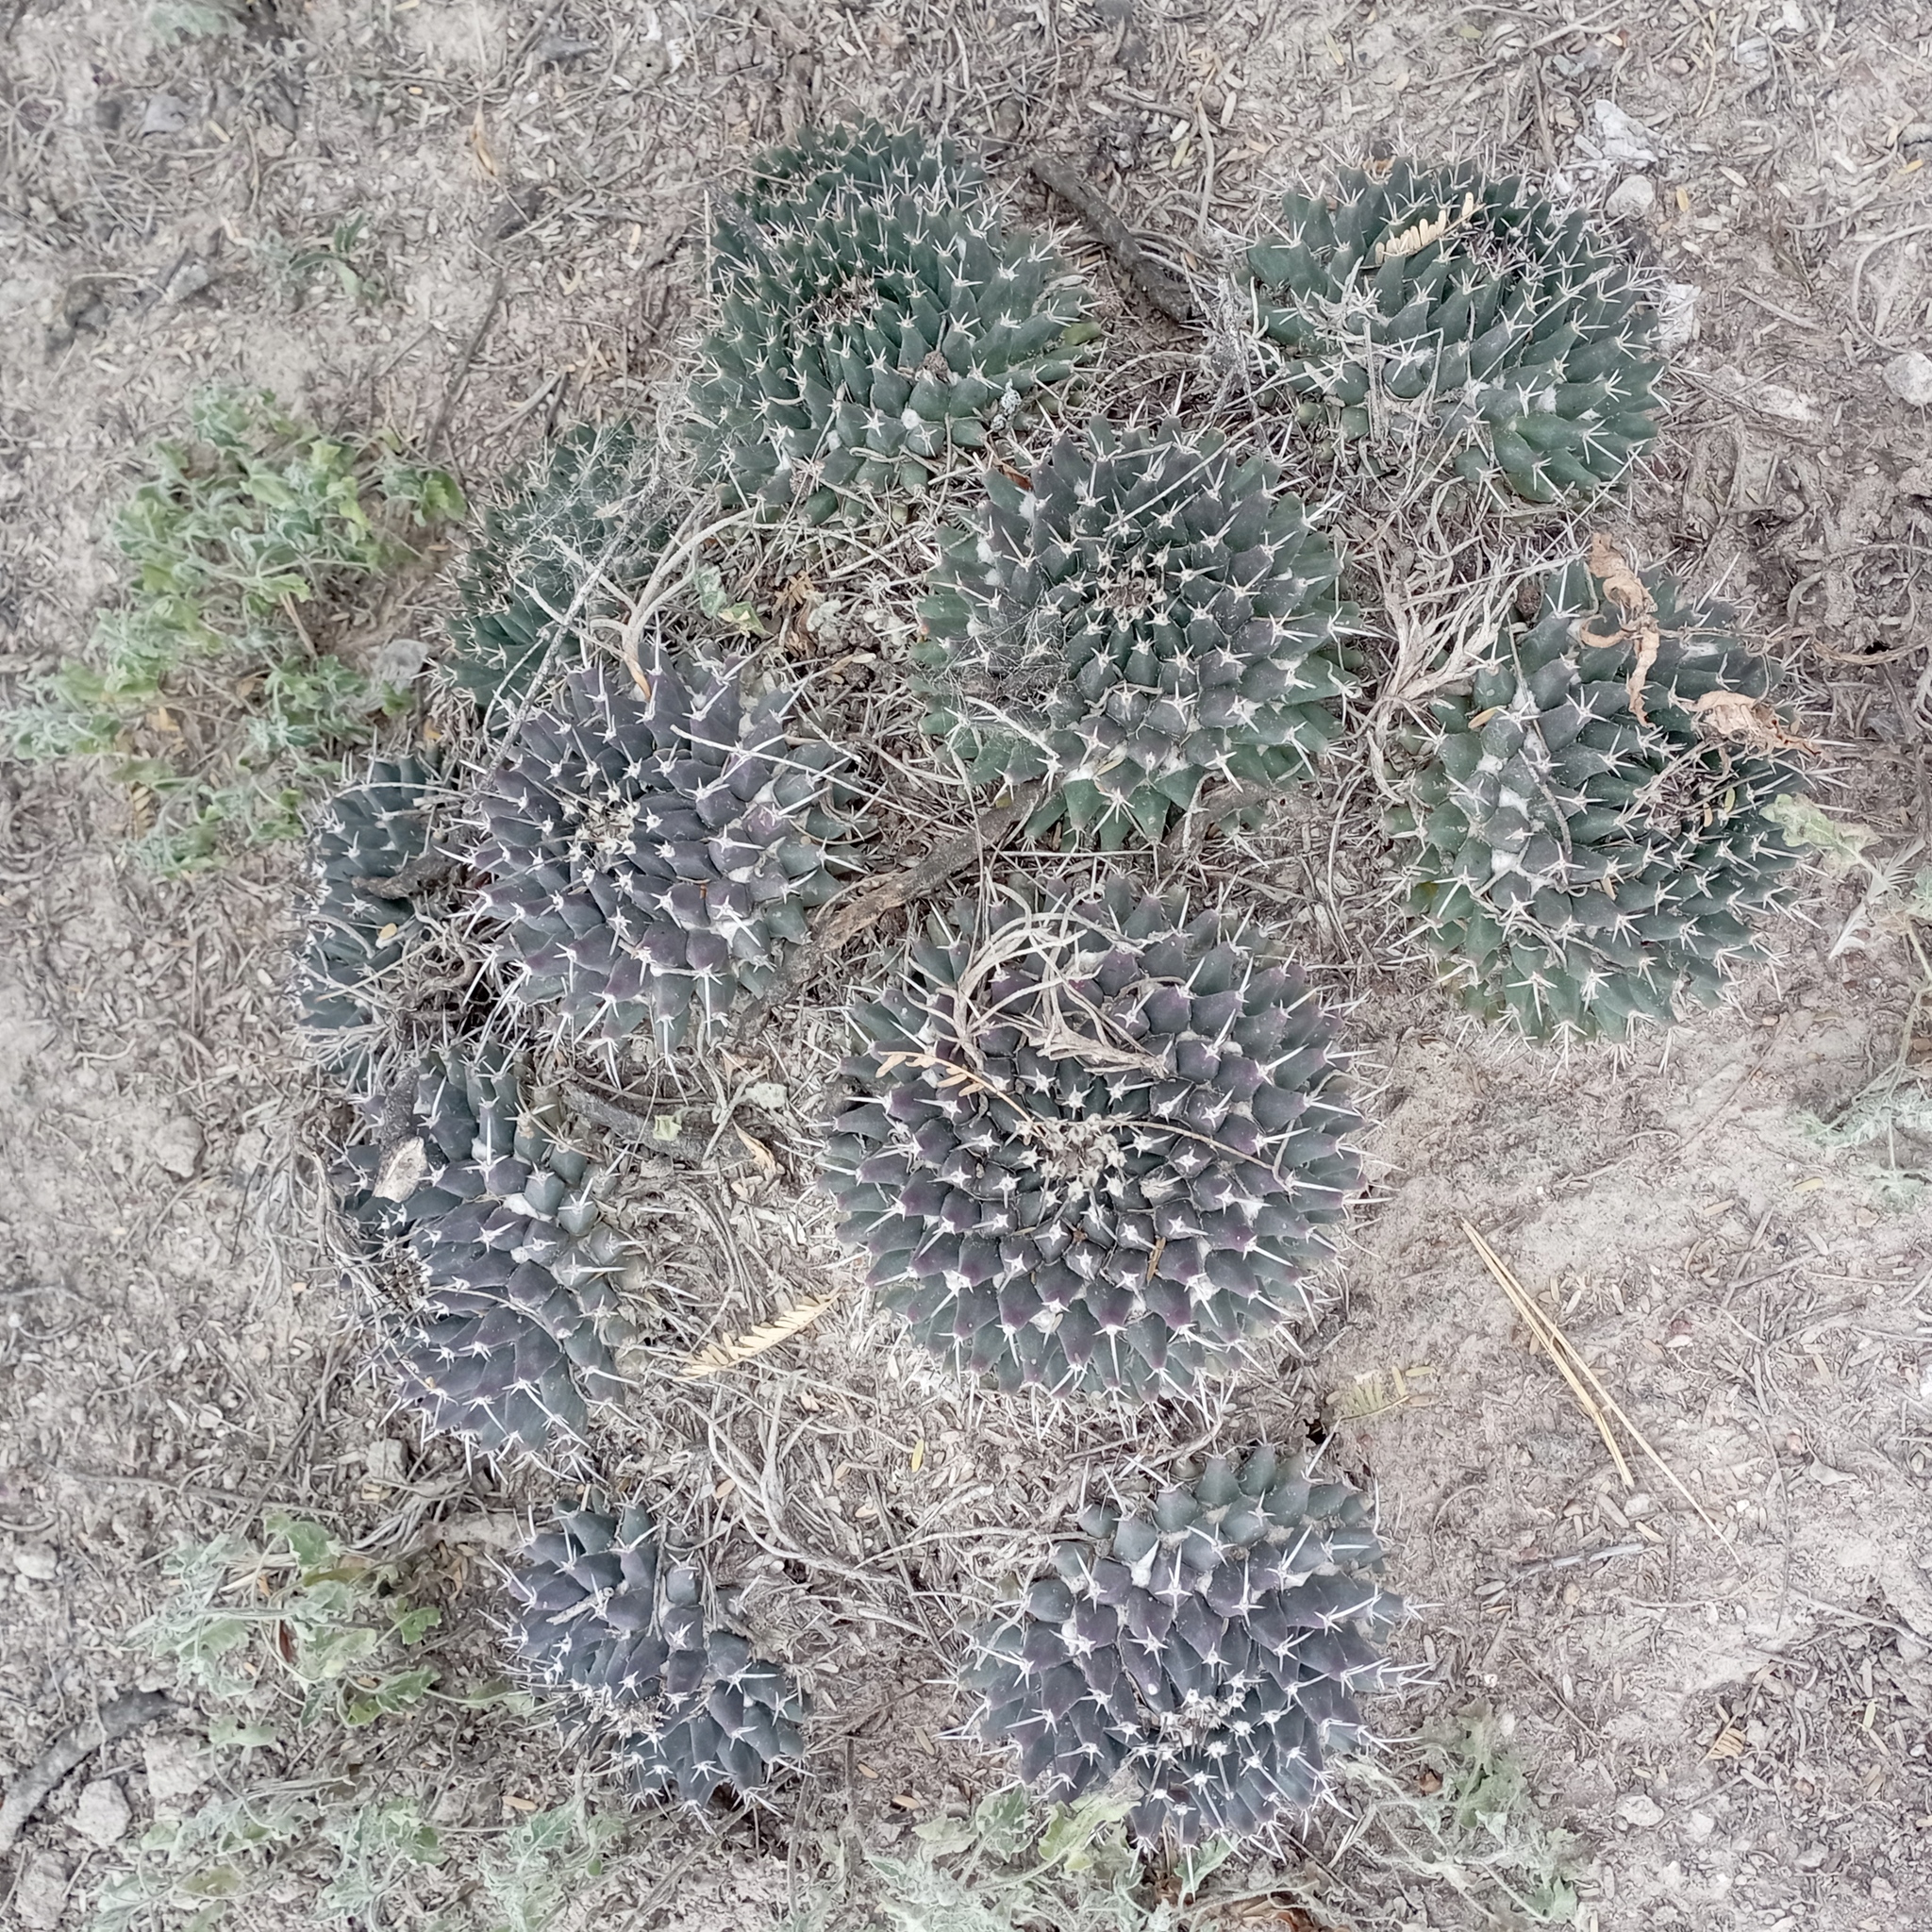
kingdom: Plantae
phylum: Tracheophyta
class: Magnoliopsida
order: Caryophyllales
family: Cactaceae
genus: Mammillaria
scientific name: Mammillaria magnimamma
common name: Mexican pincushion
